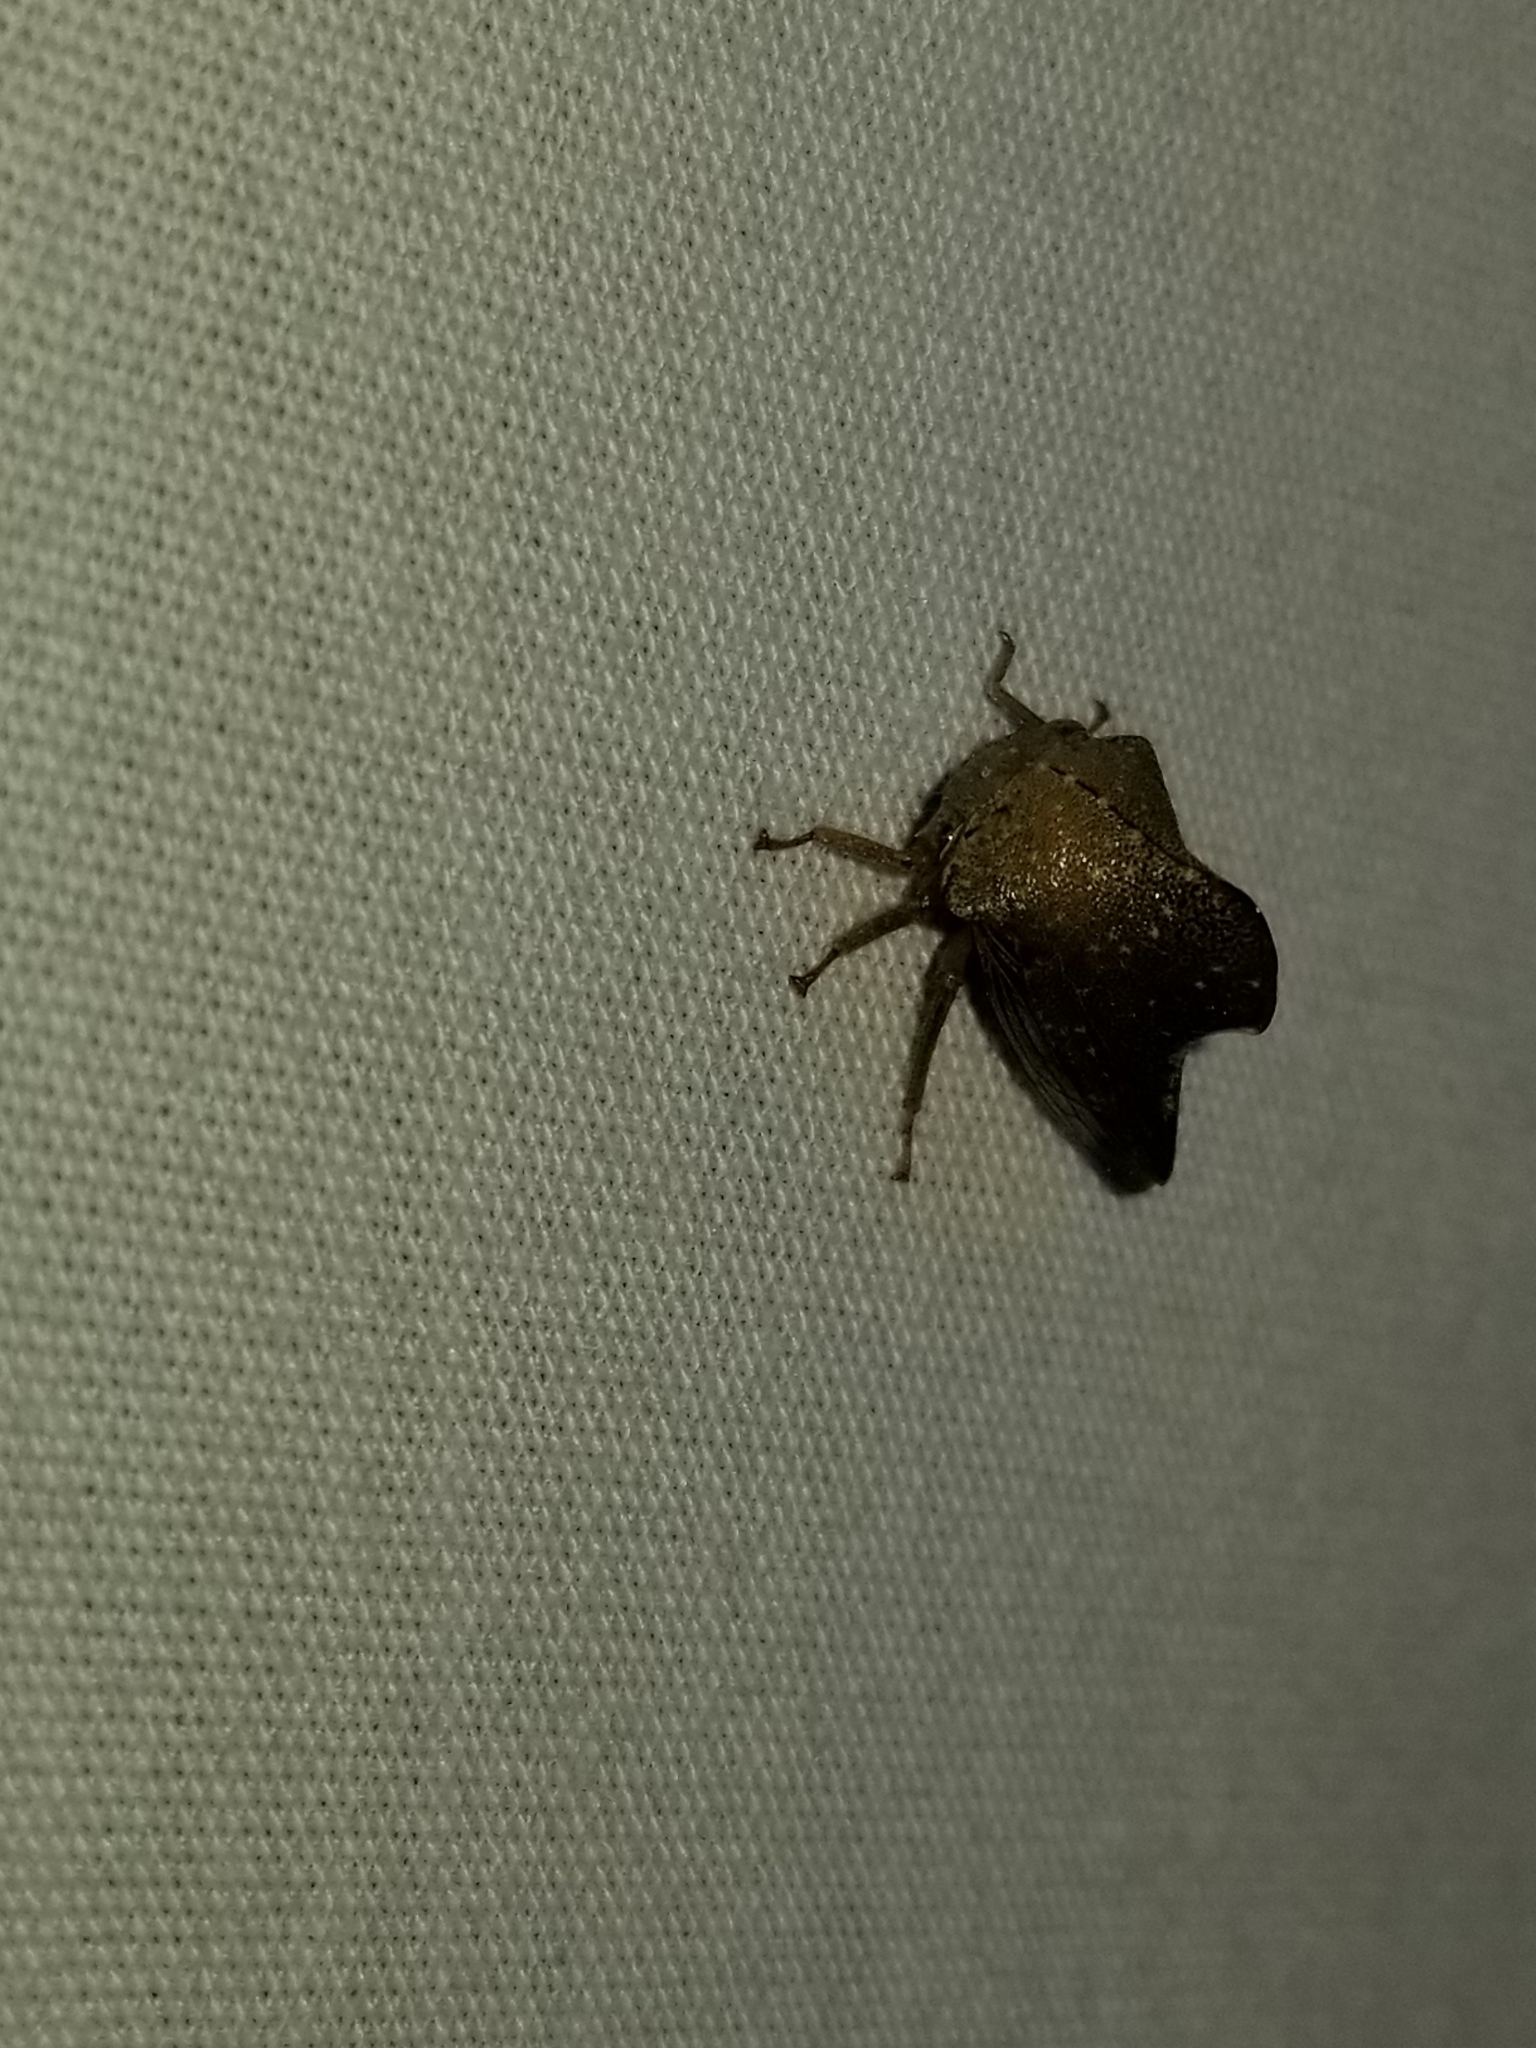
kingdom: Animalia
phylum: Arthropoda
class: Insecta
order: Hemiptera
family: Membracidae
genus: Telamona
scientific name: Telamona monticola
